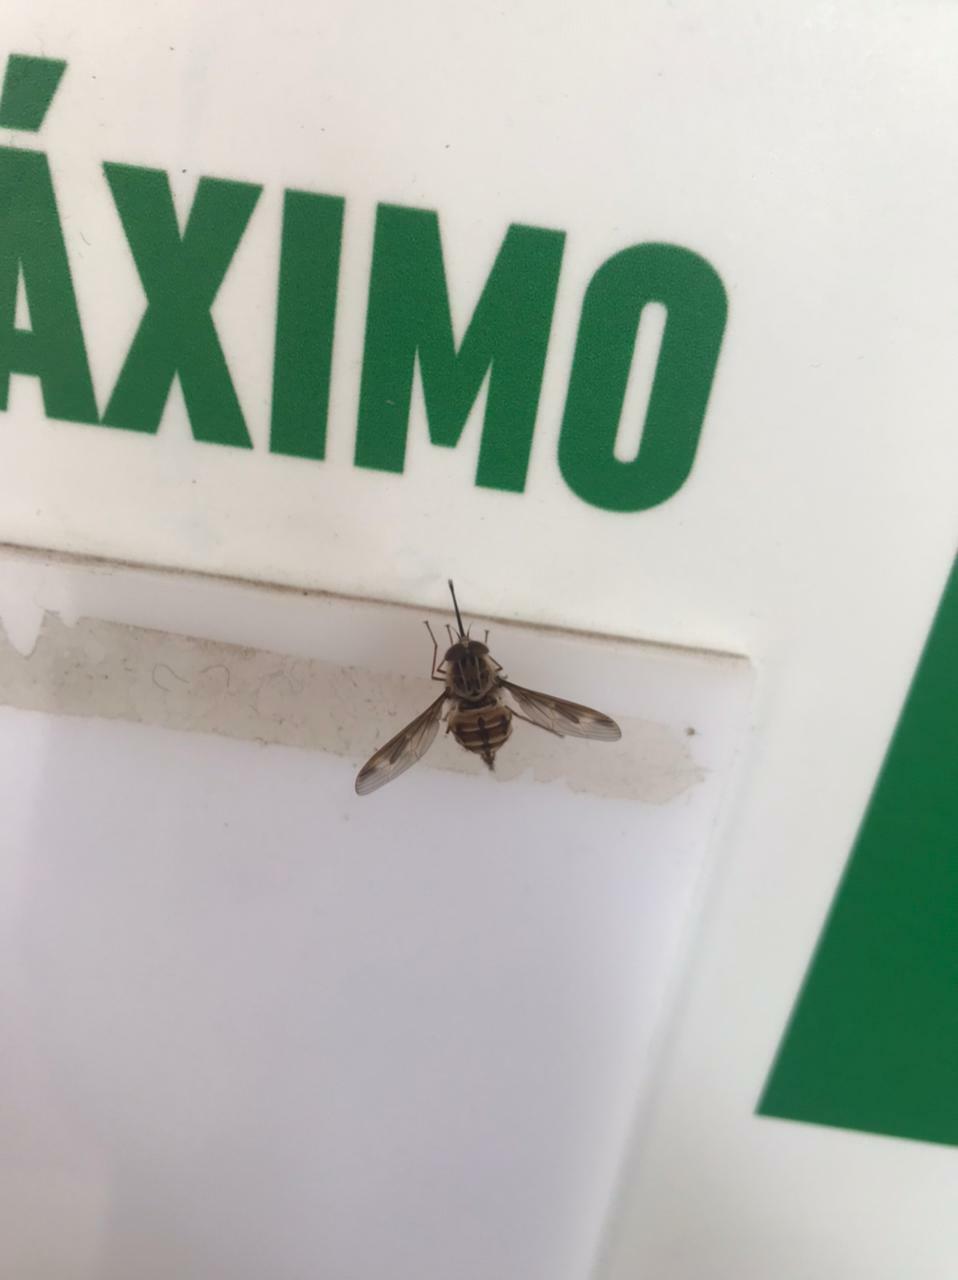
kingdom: Animalia
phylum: Arthropoda
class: Insecta
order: Diptera
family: Nemestrinidae
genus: Trichophthalma
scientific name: Trichophthalma nubipennis
